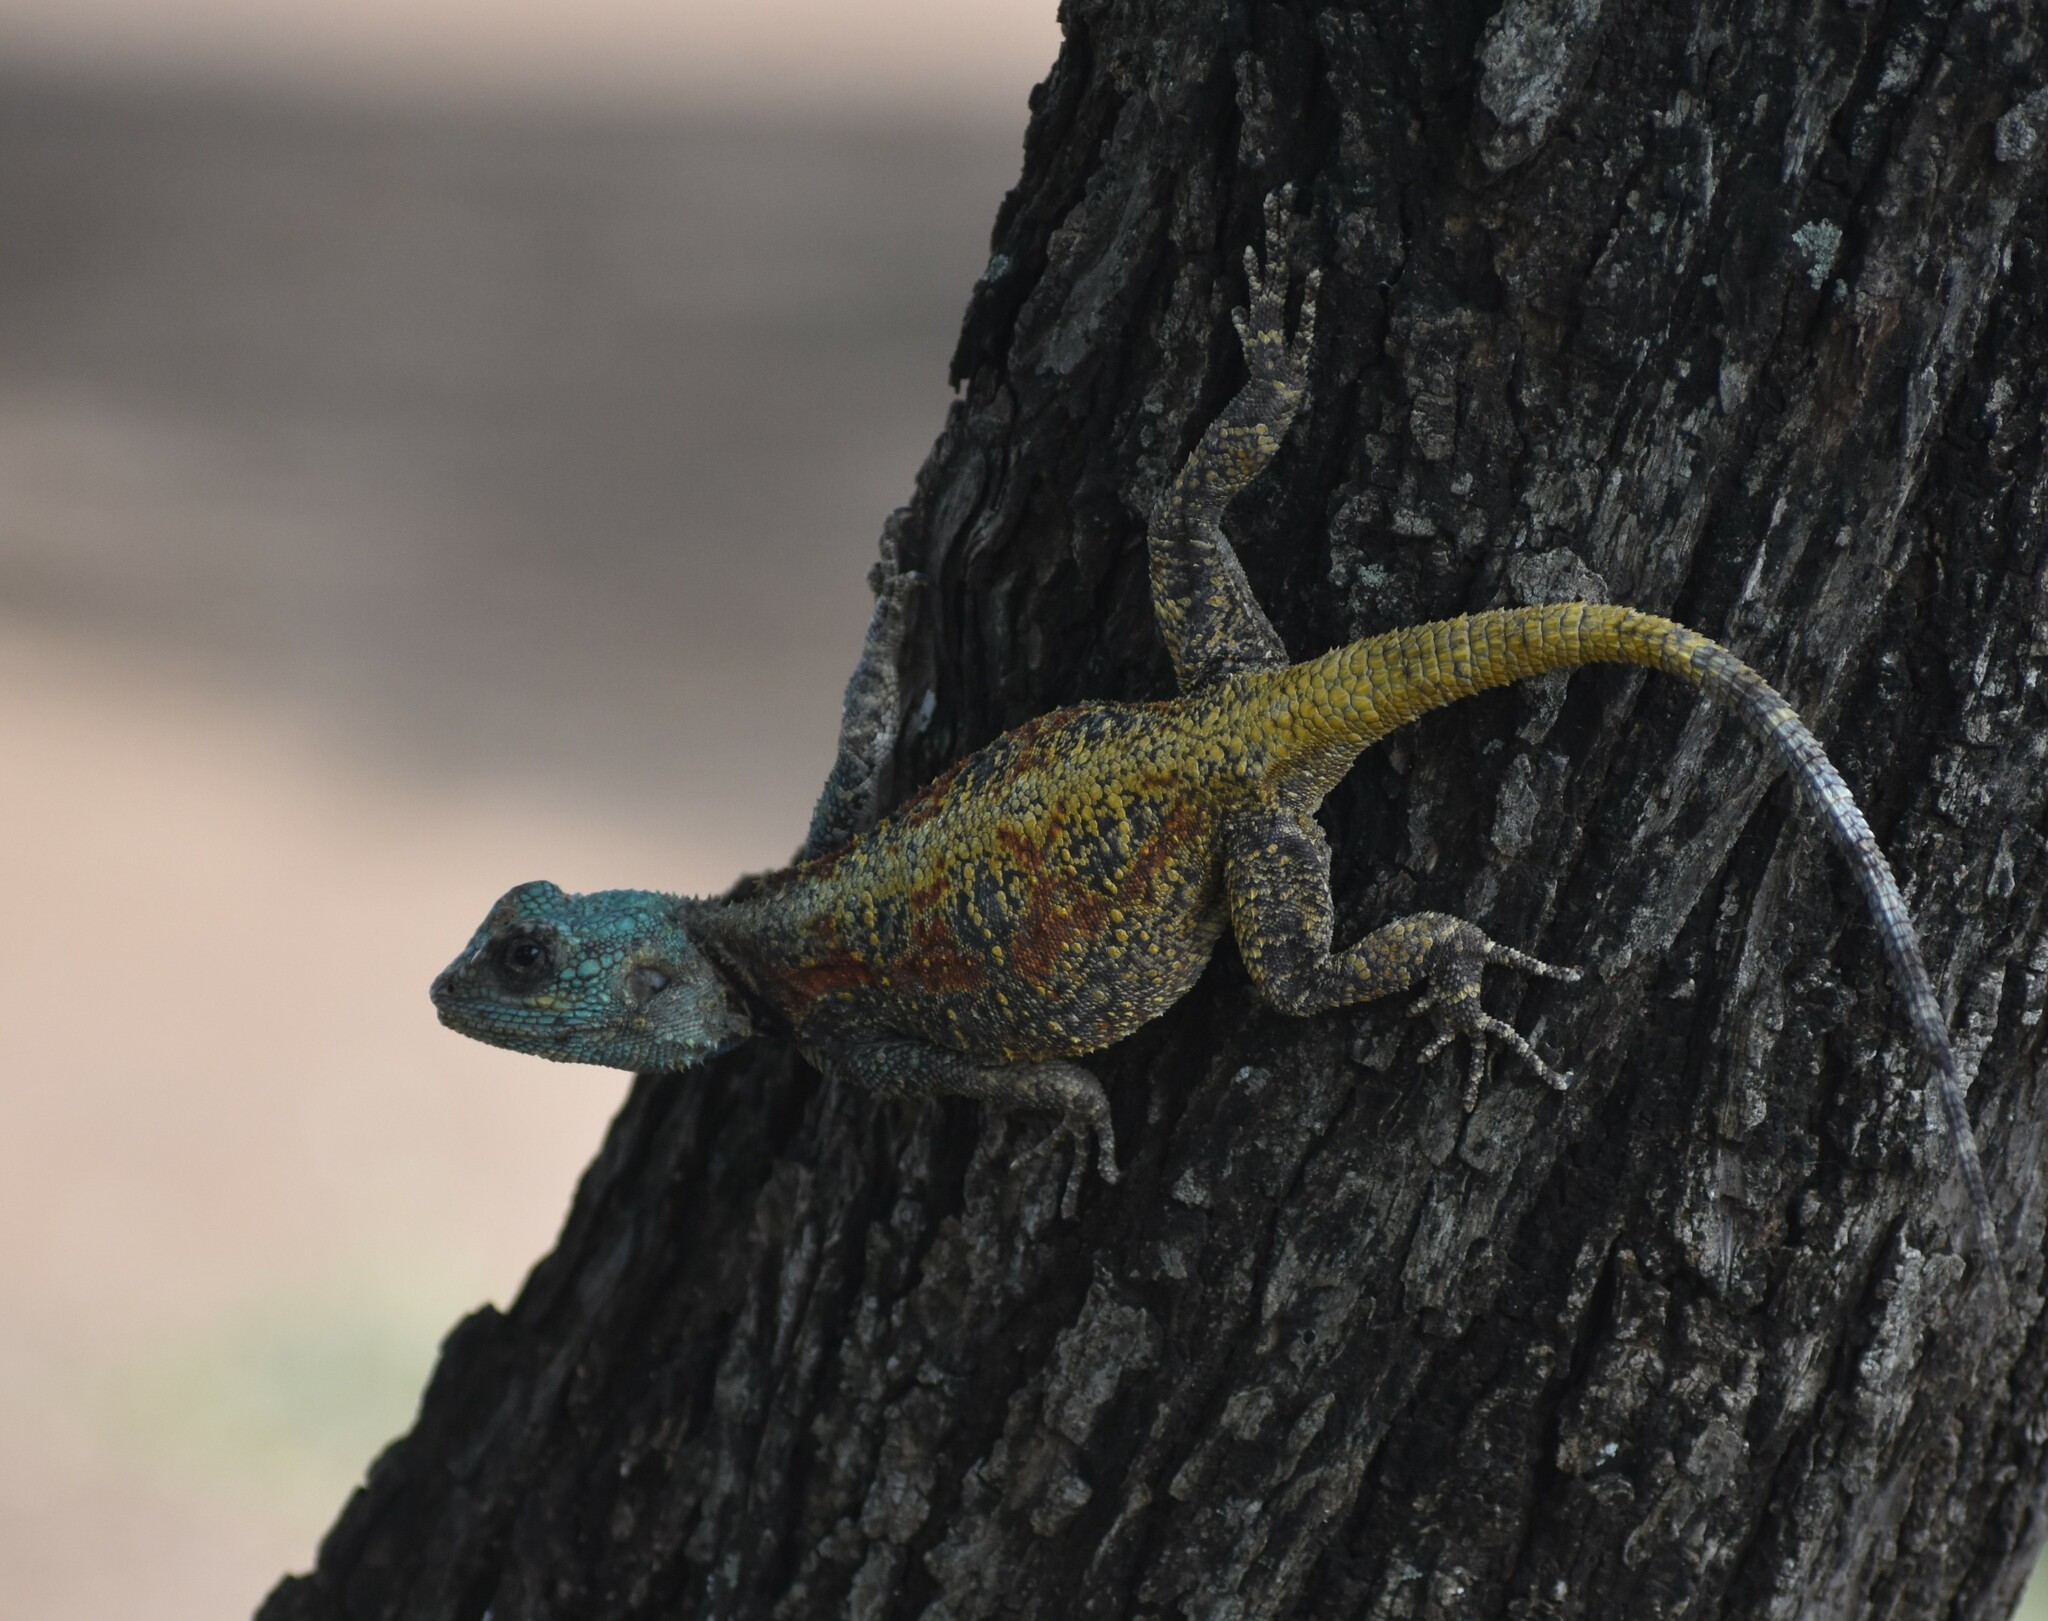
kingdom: Animalia
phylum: Chordata
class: Squamata
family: Agamidae
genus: Acanthocercus
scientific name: Acanthocercus atricollis
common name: Southern tree agama
